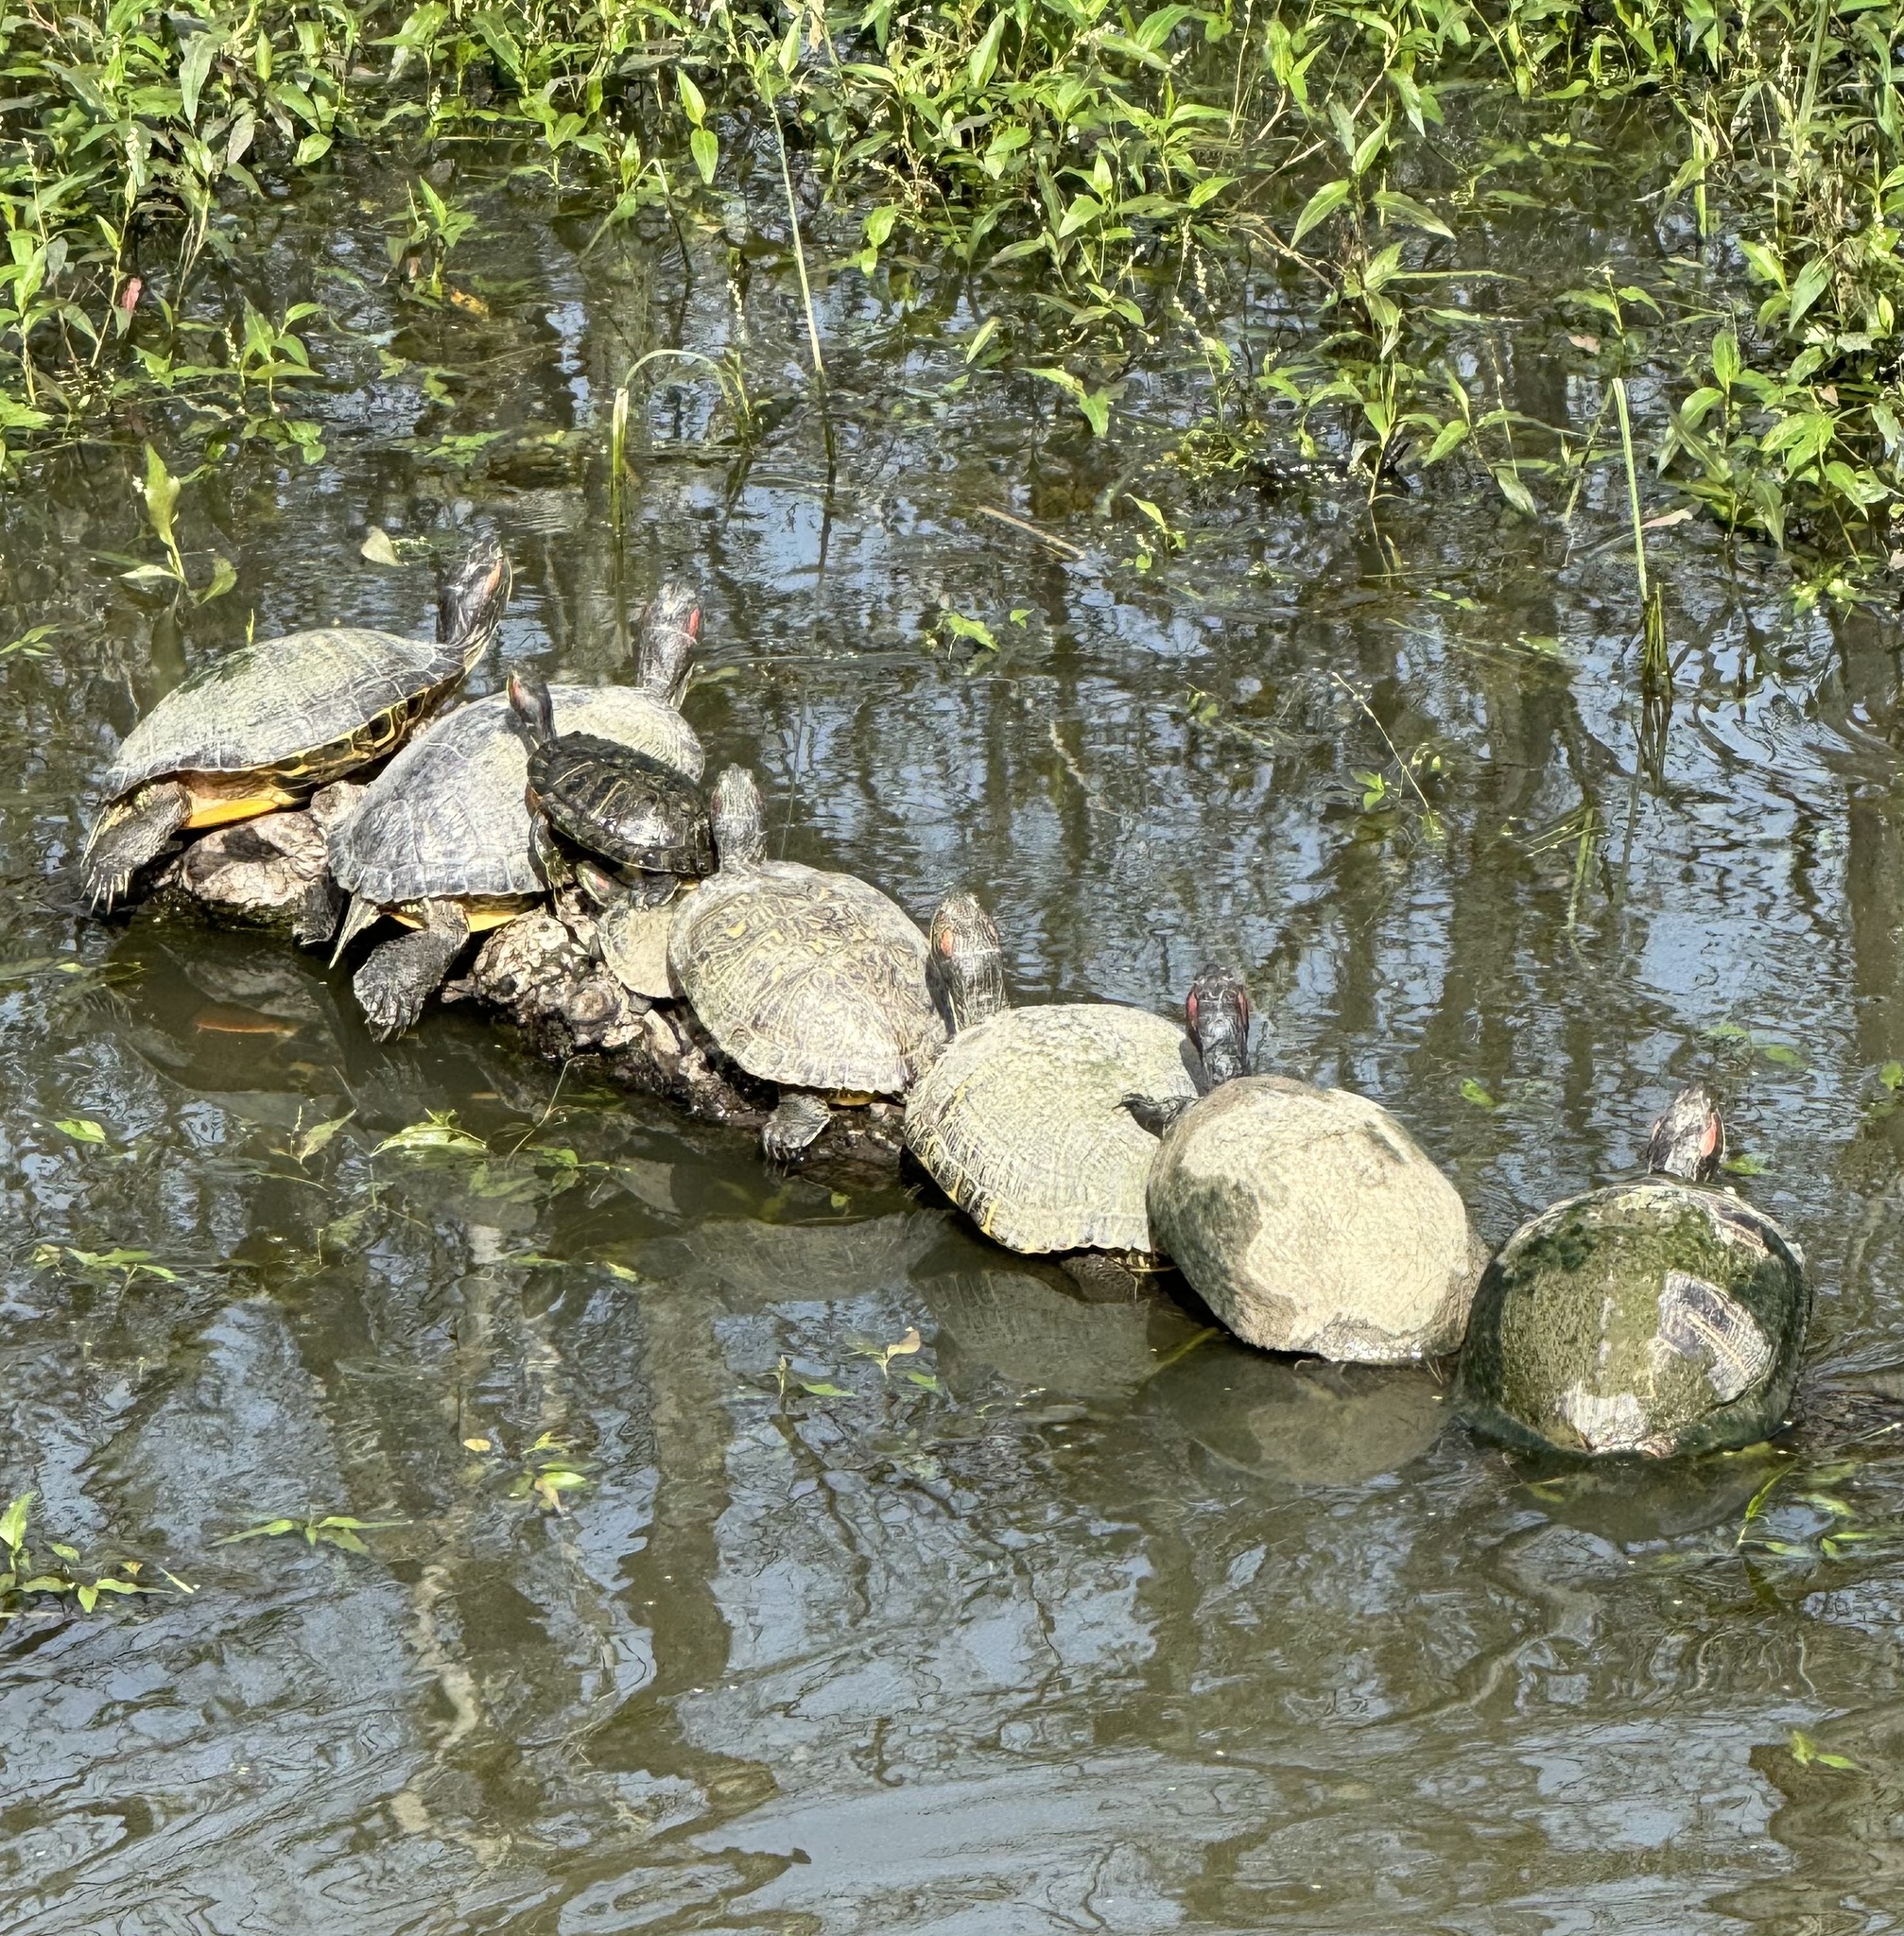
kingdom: Animalia
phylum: Chordata
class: Testudines
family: Emydidae
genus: Trachemys
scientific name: Trachemys scripta
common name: Slider
